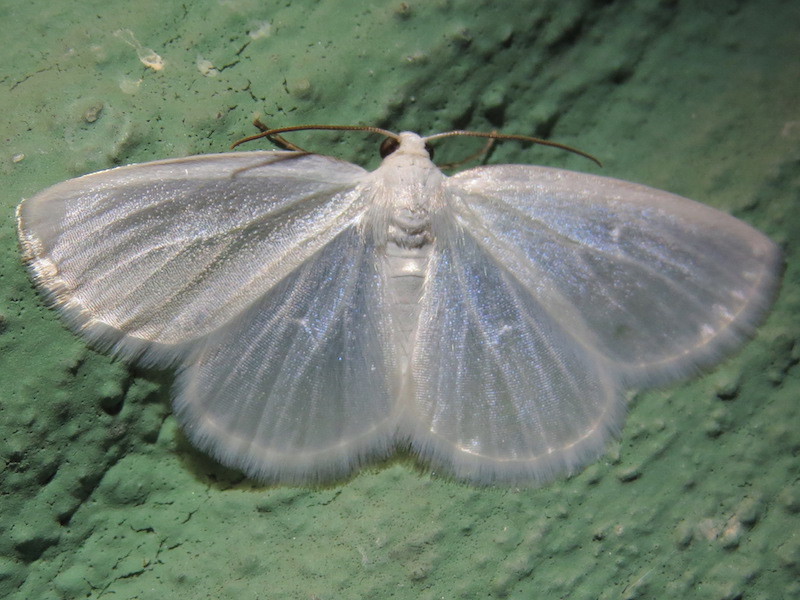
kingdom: Animalia
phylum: Arthropoda
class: Insecta
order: Lepidoptera
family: Geometridae
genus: Lomographa
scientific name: Lomographa vestaliata
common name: White spring moth
